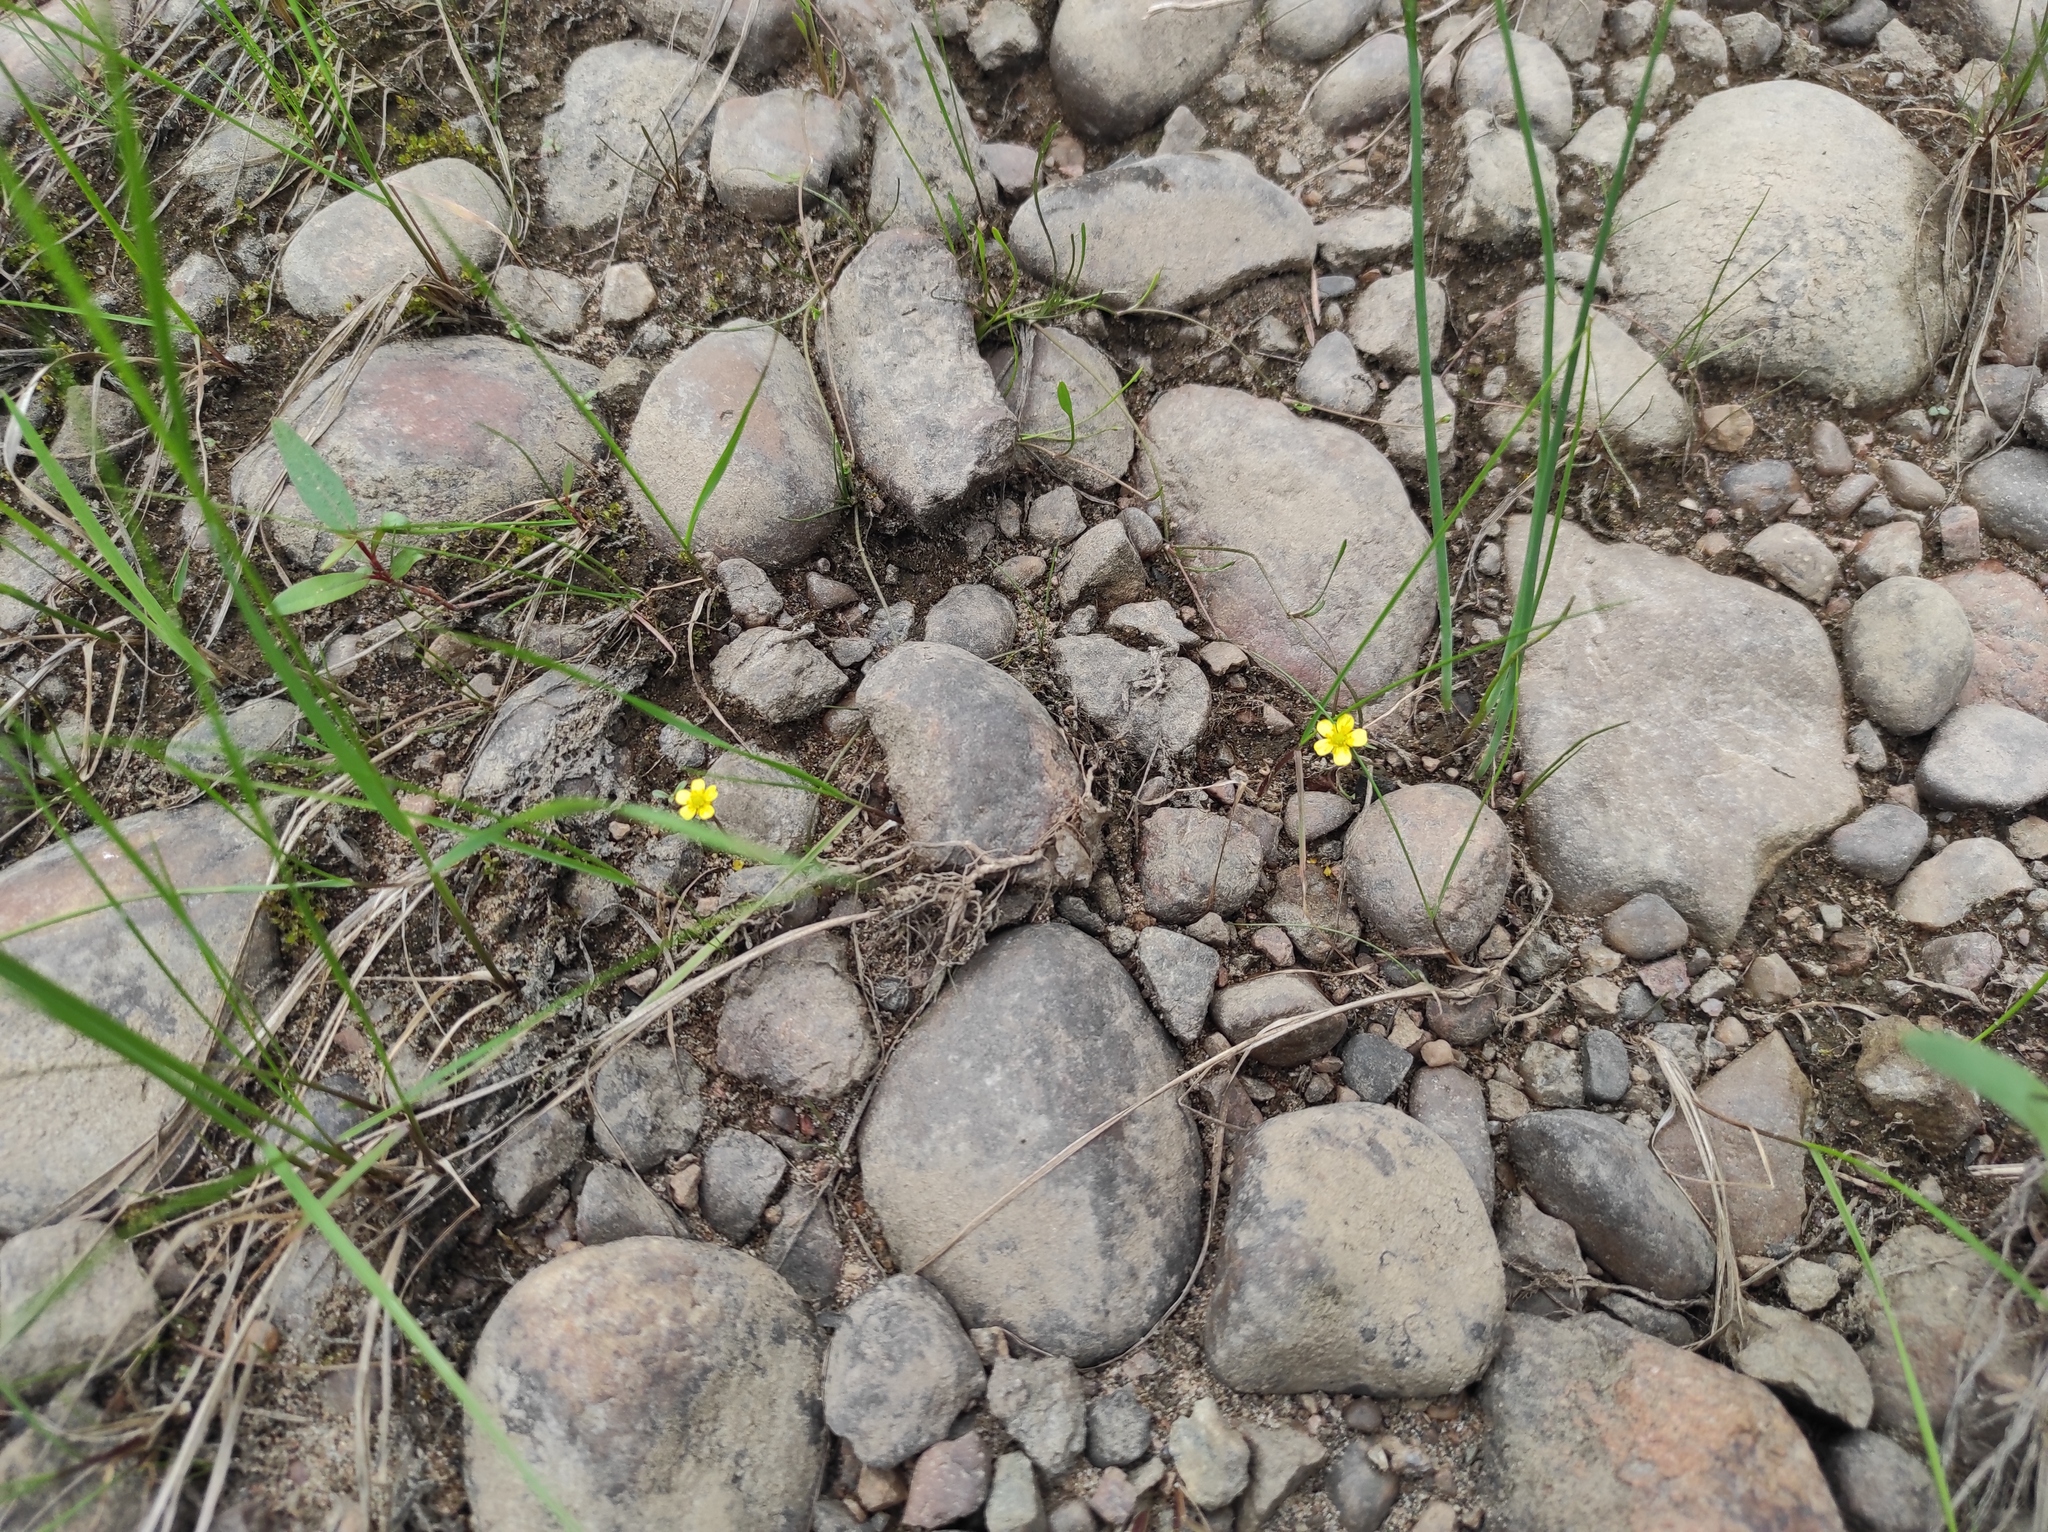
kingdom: Plantae
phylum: Tracheophyta
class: Magnoliopsida
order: Ranunculales
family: Ranunculaceae
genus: Ranunculus
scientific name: Ranunculus reptans
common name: Creeping spearwort
